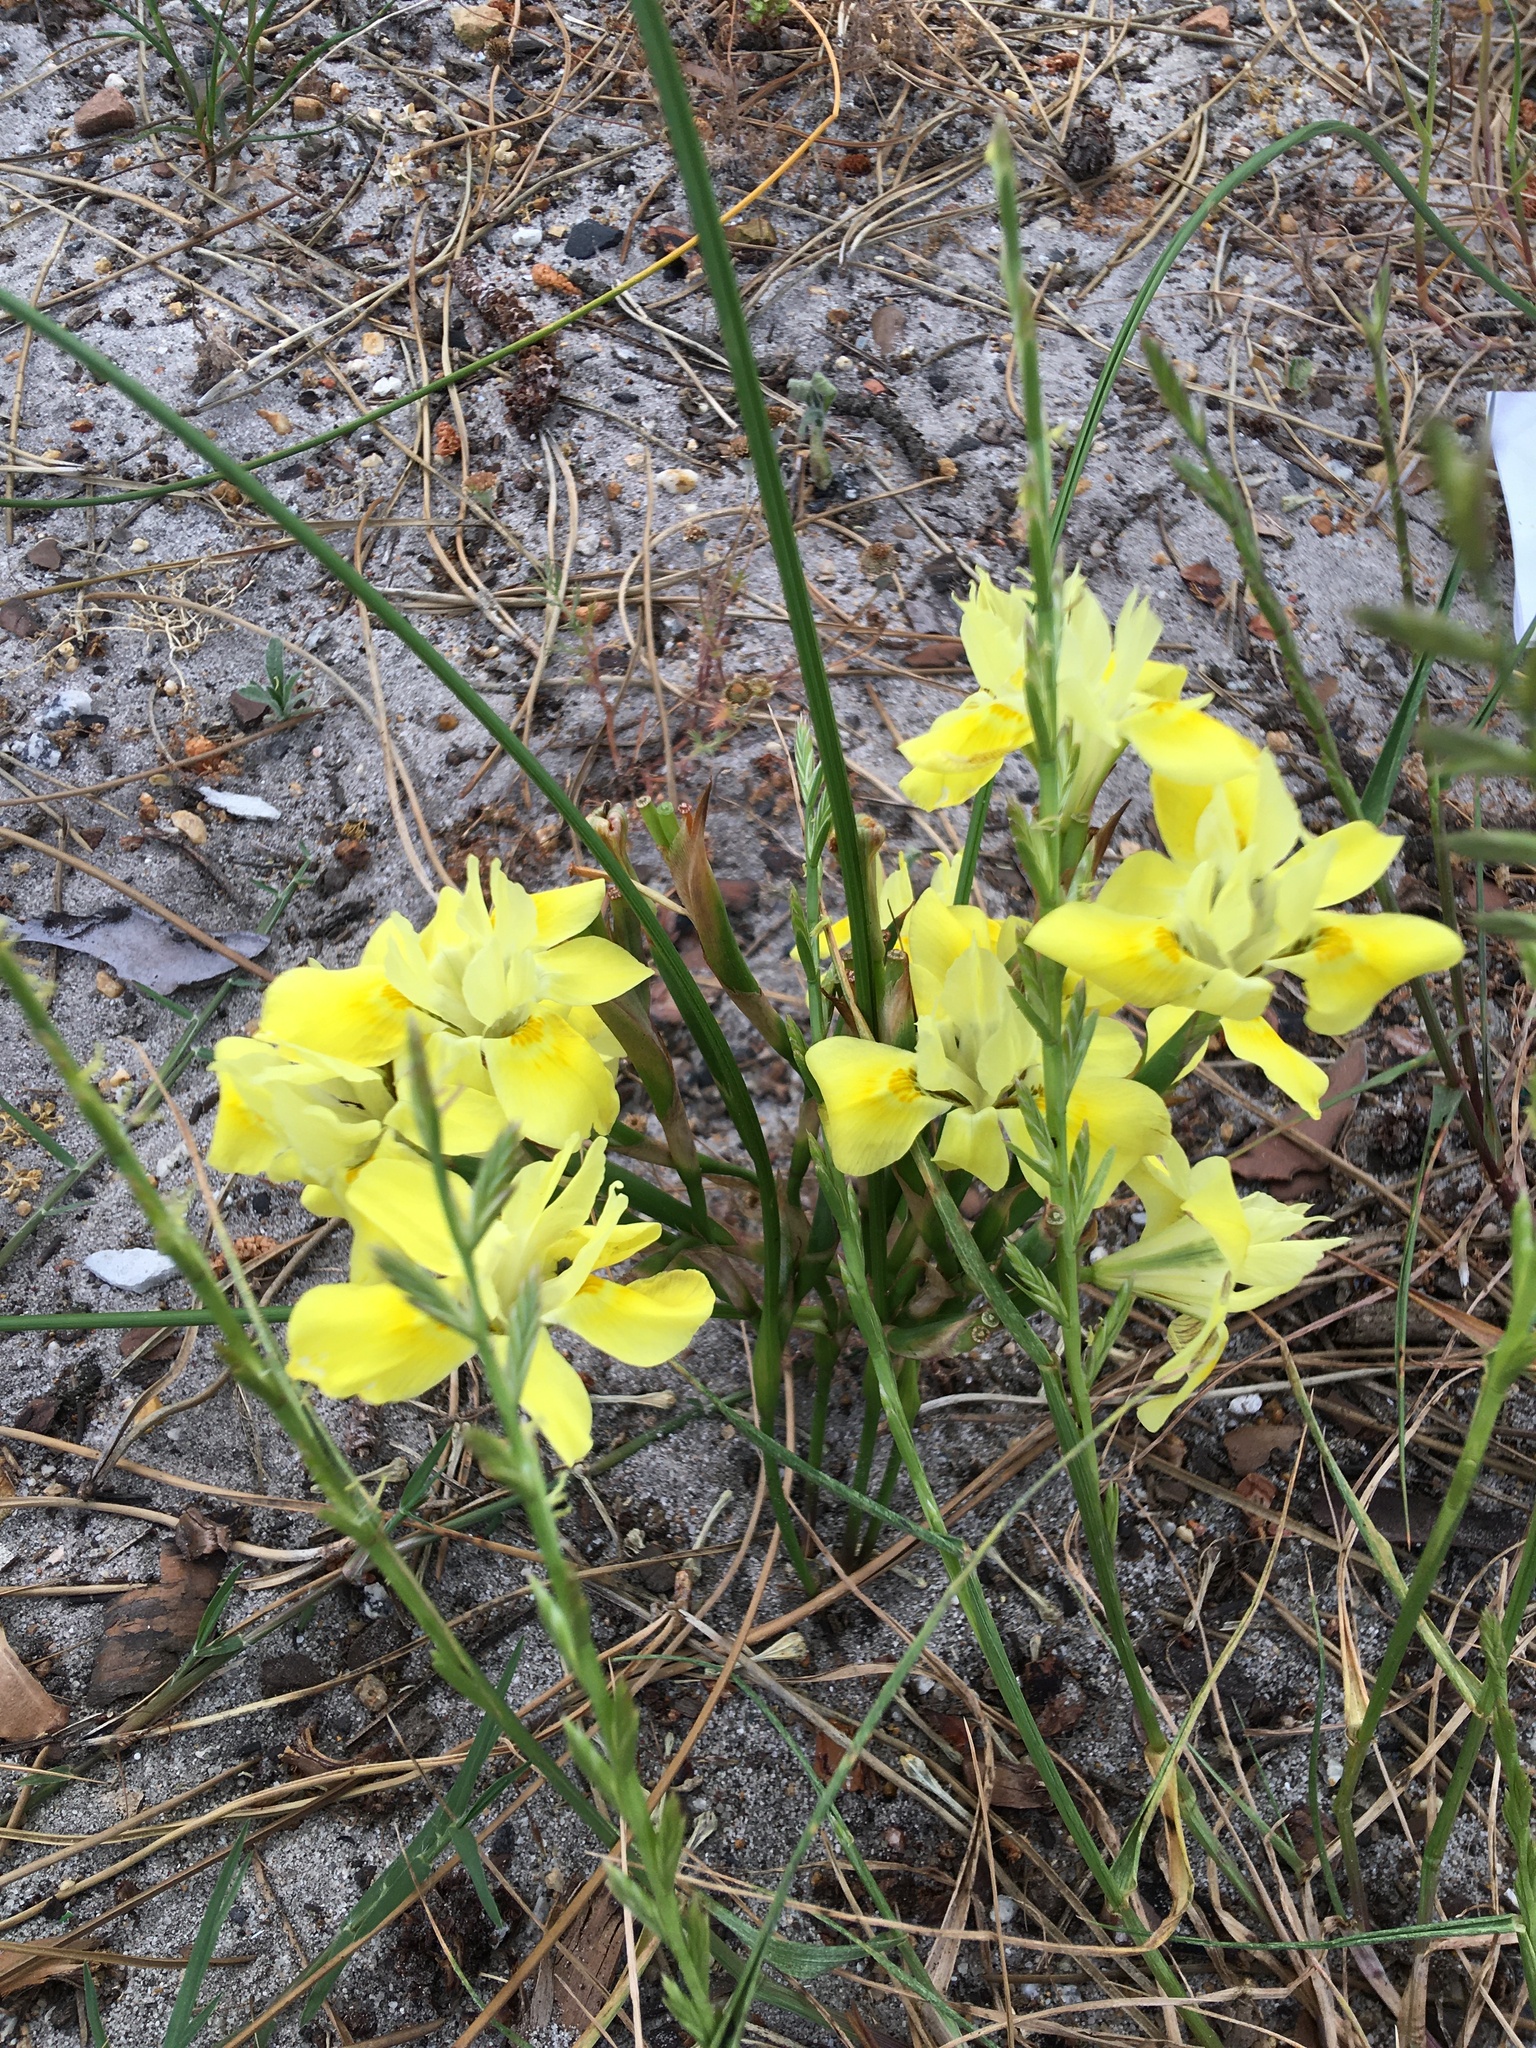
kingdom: Plantae
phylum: Tracheophyta
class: Liliopsida
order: Asparagales
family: Iridaceae
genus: Moraea
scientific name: Moraea fugax
